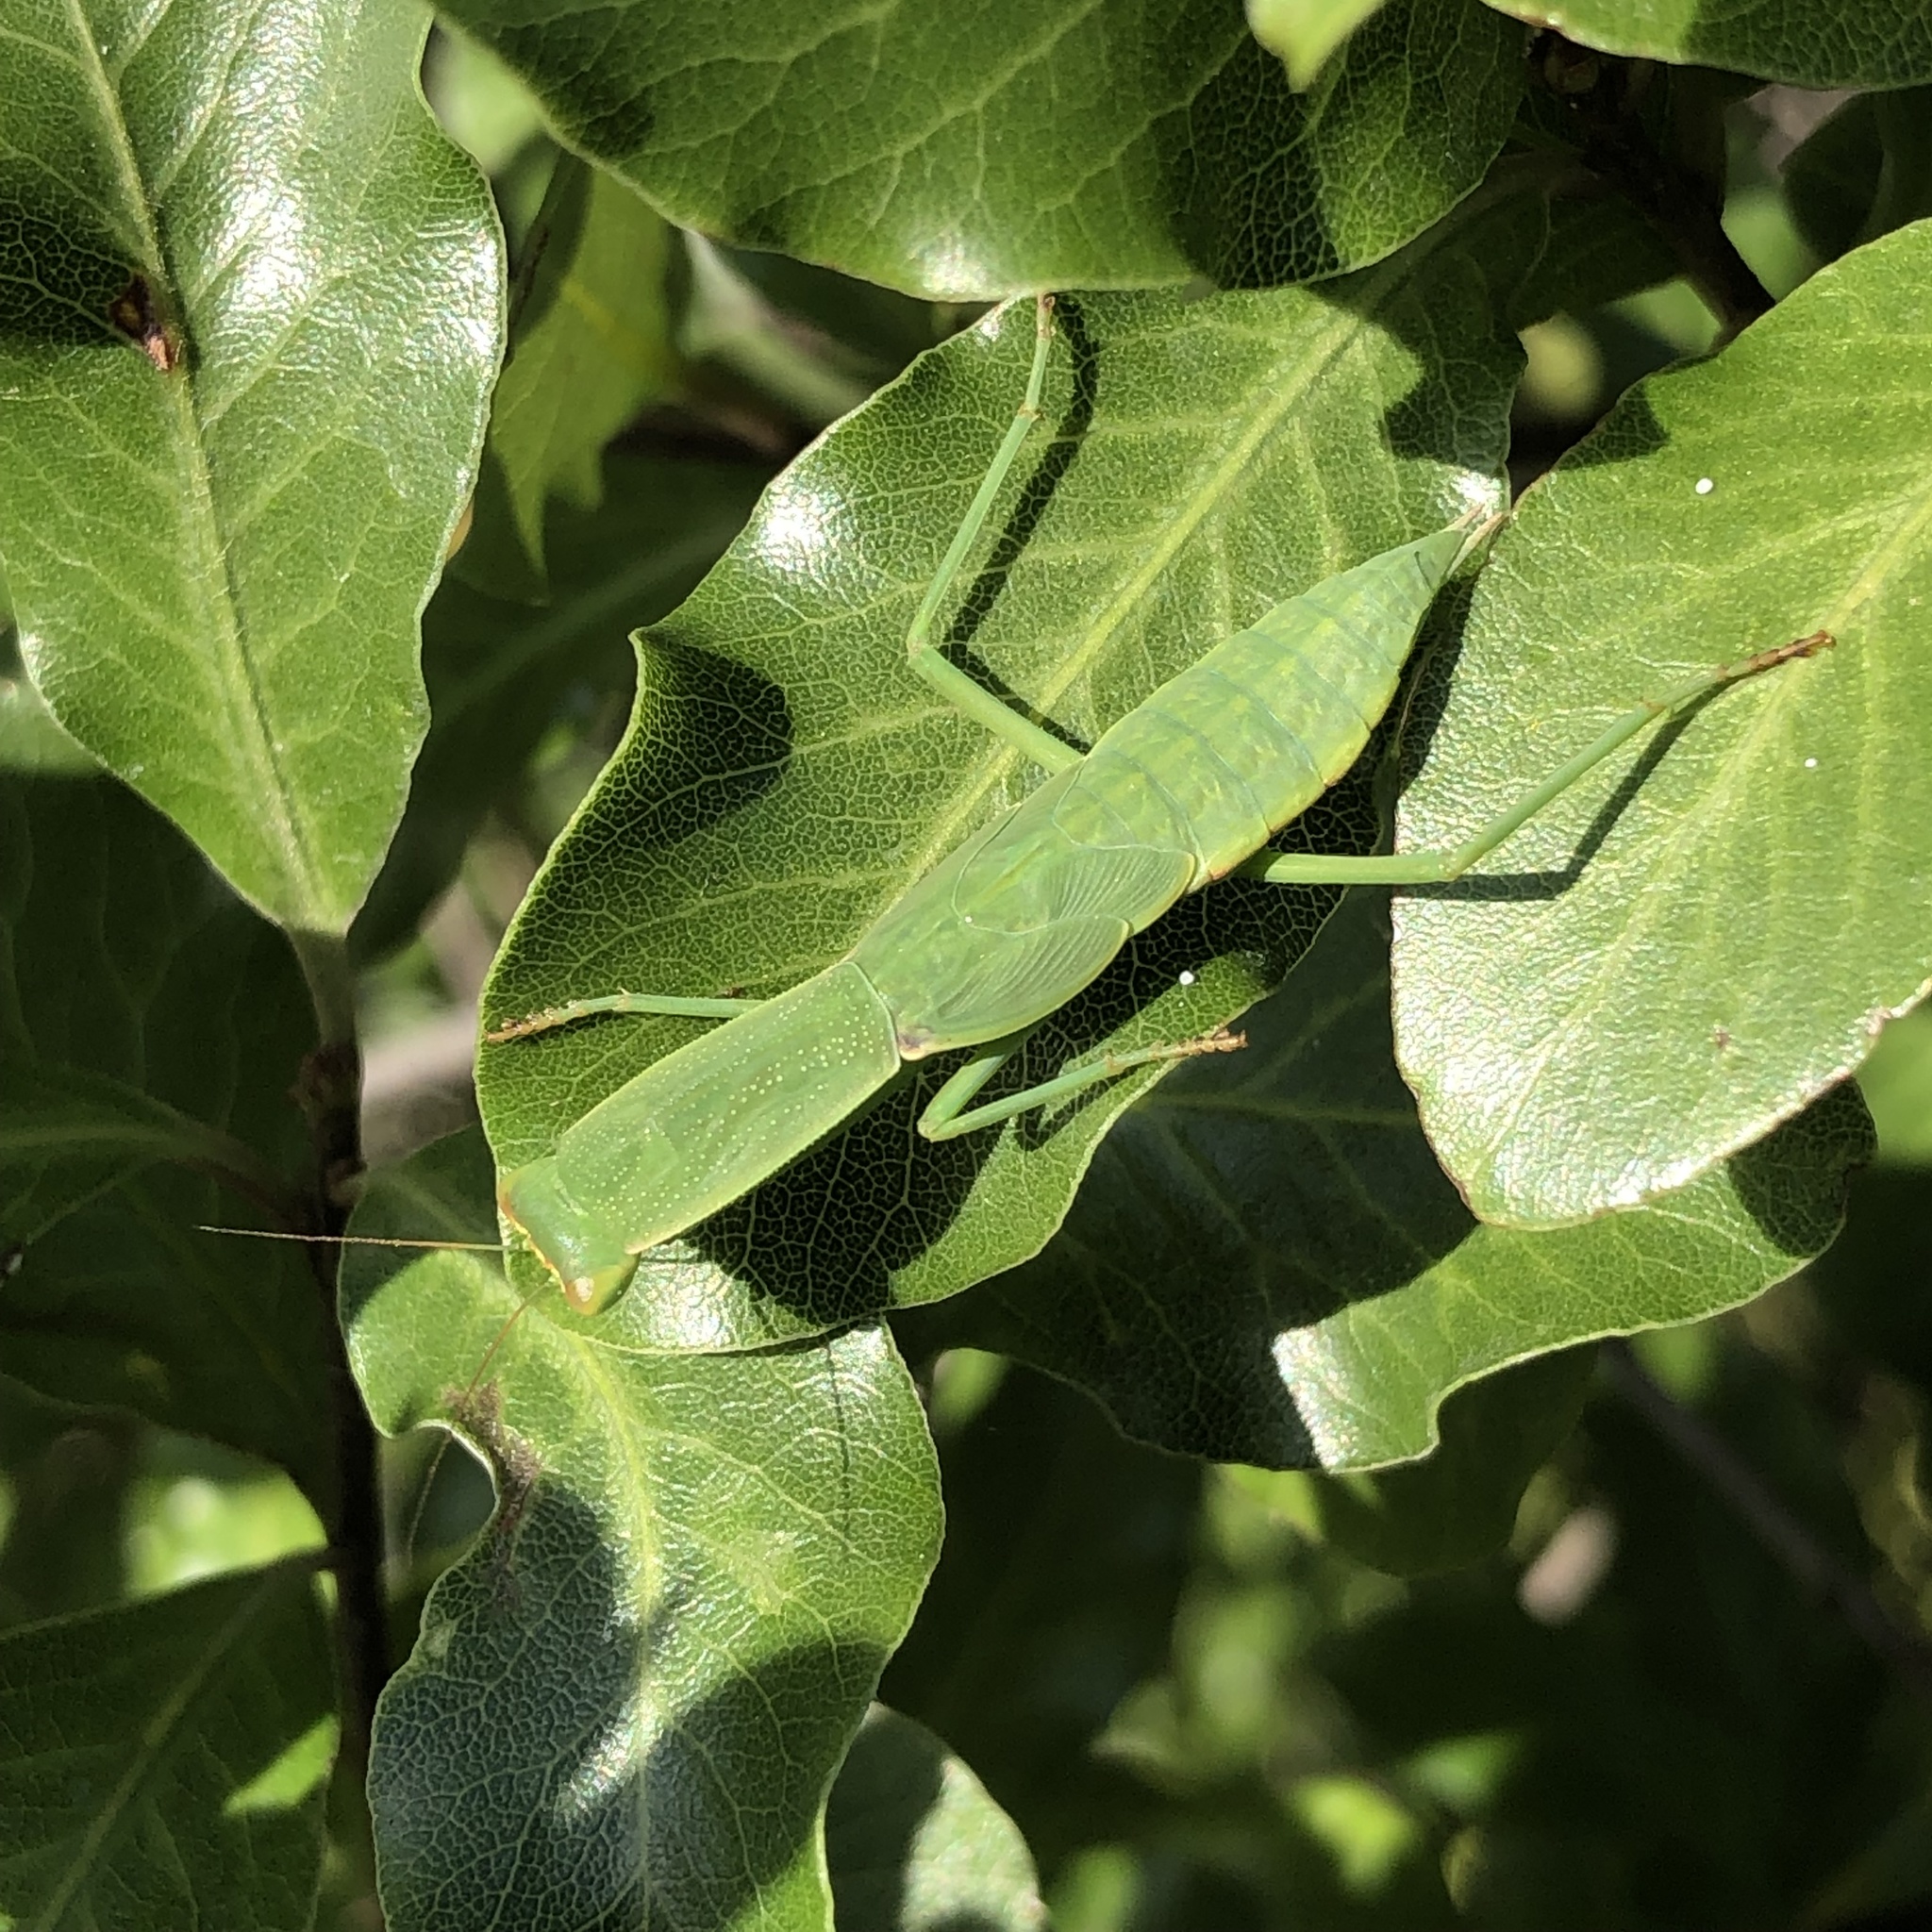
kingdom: Animalia
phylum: Arthropoda
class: Insecta
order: Mantodea
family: Mantidae
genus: Orthodera
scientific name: Orthodera novaezealandiae
